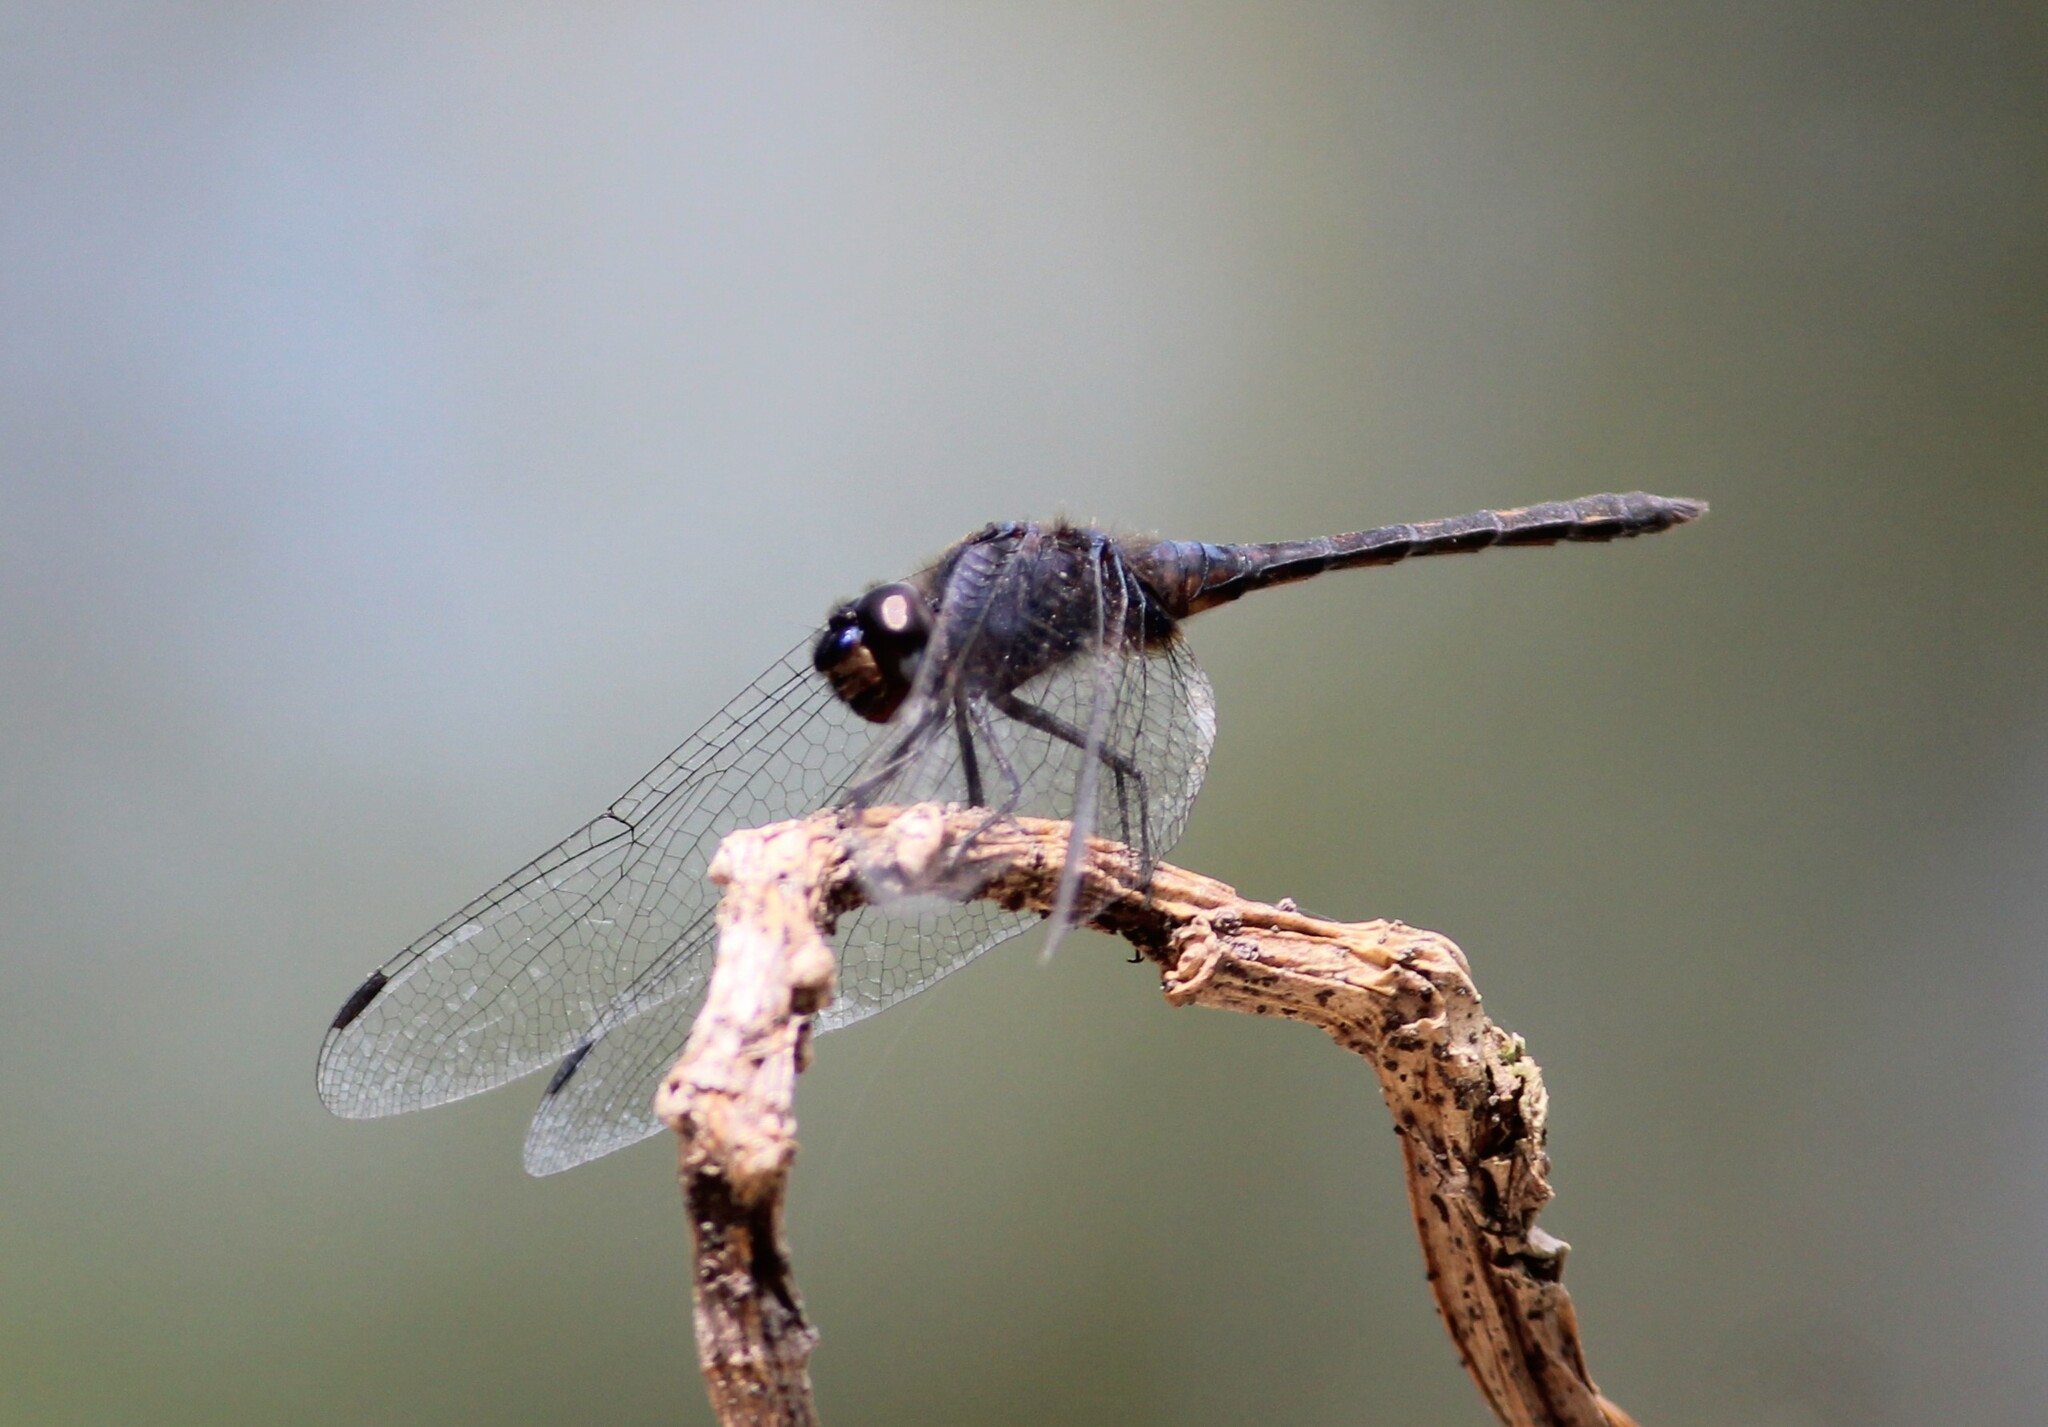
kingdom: Animalia
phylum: Arthropoda
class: Insecta
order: Odonata
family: Libellulidae
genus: Trithemis
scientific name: Trithemis festiva
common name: Indigo dropwing
